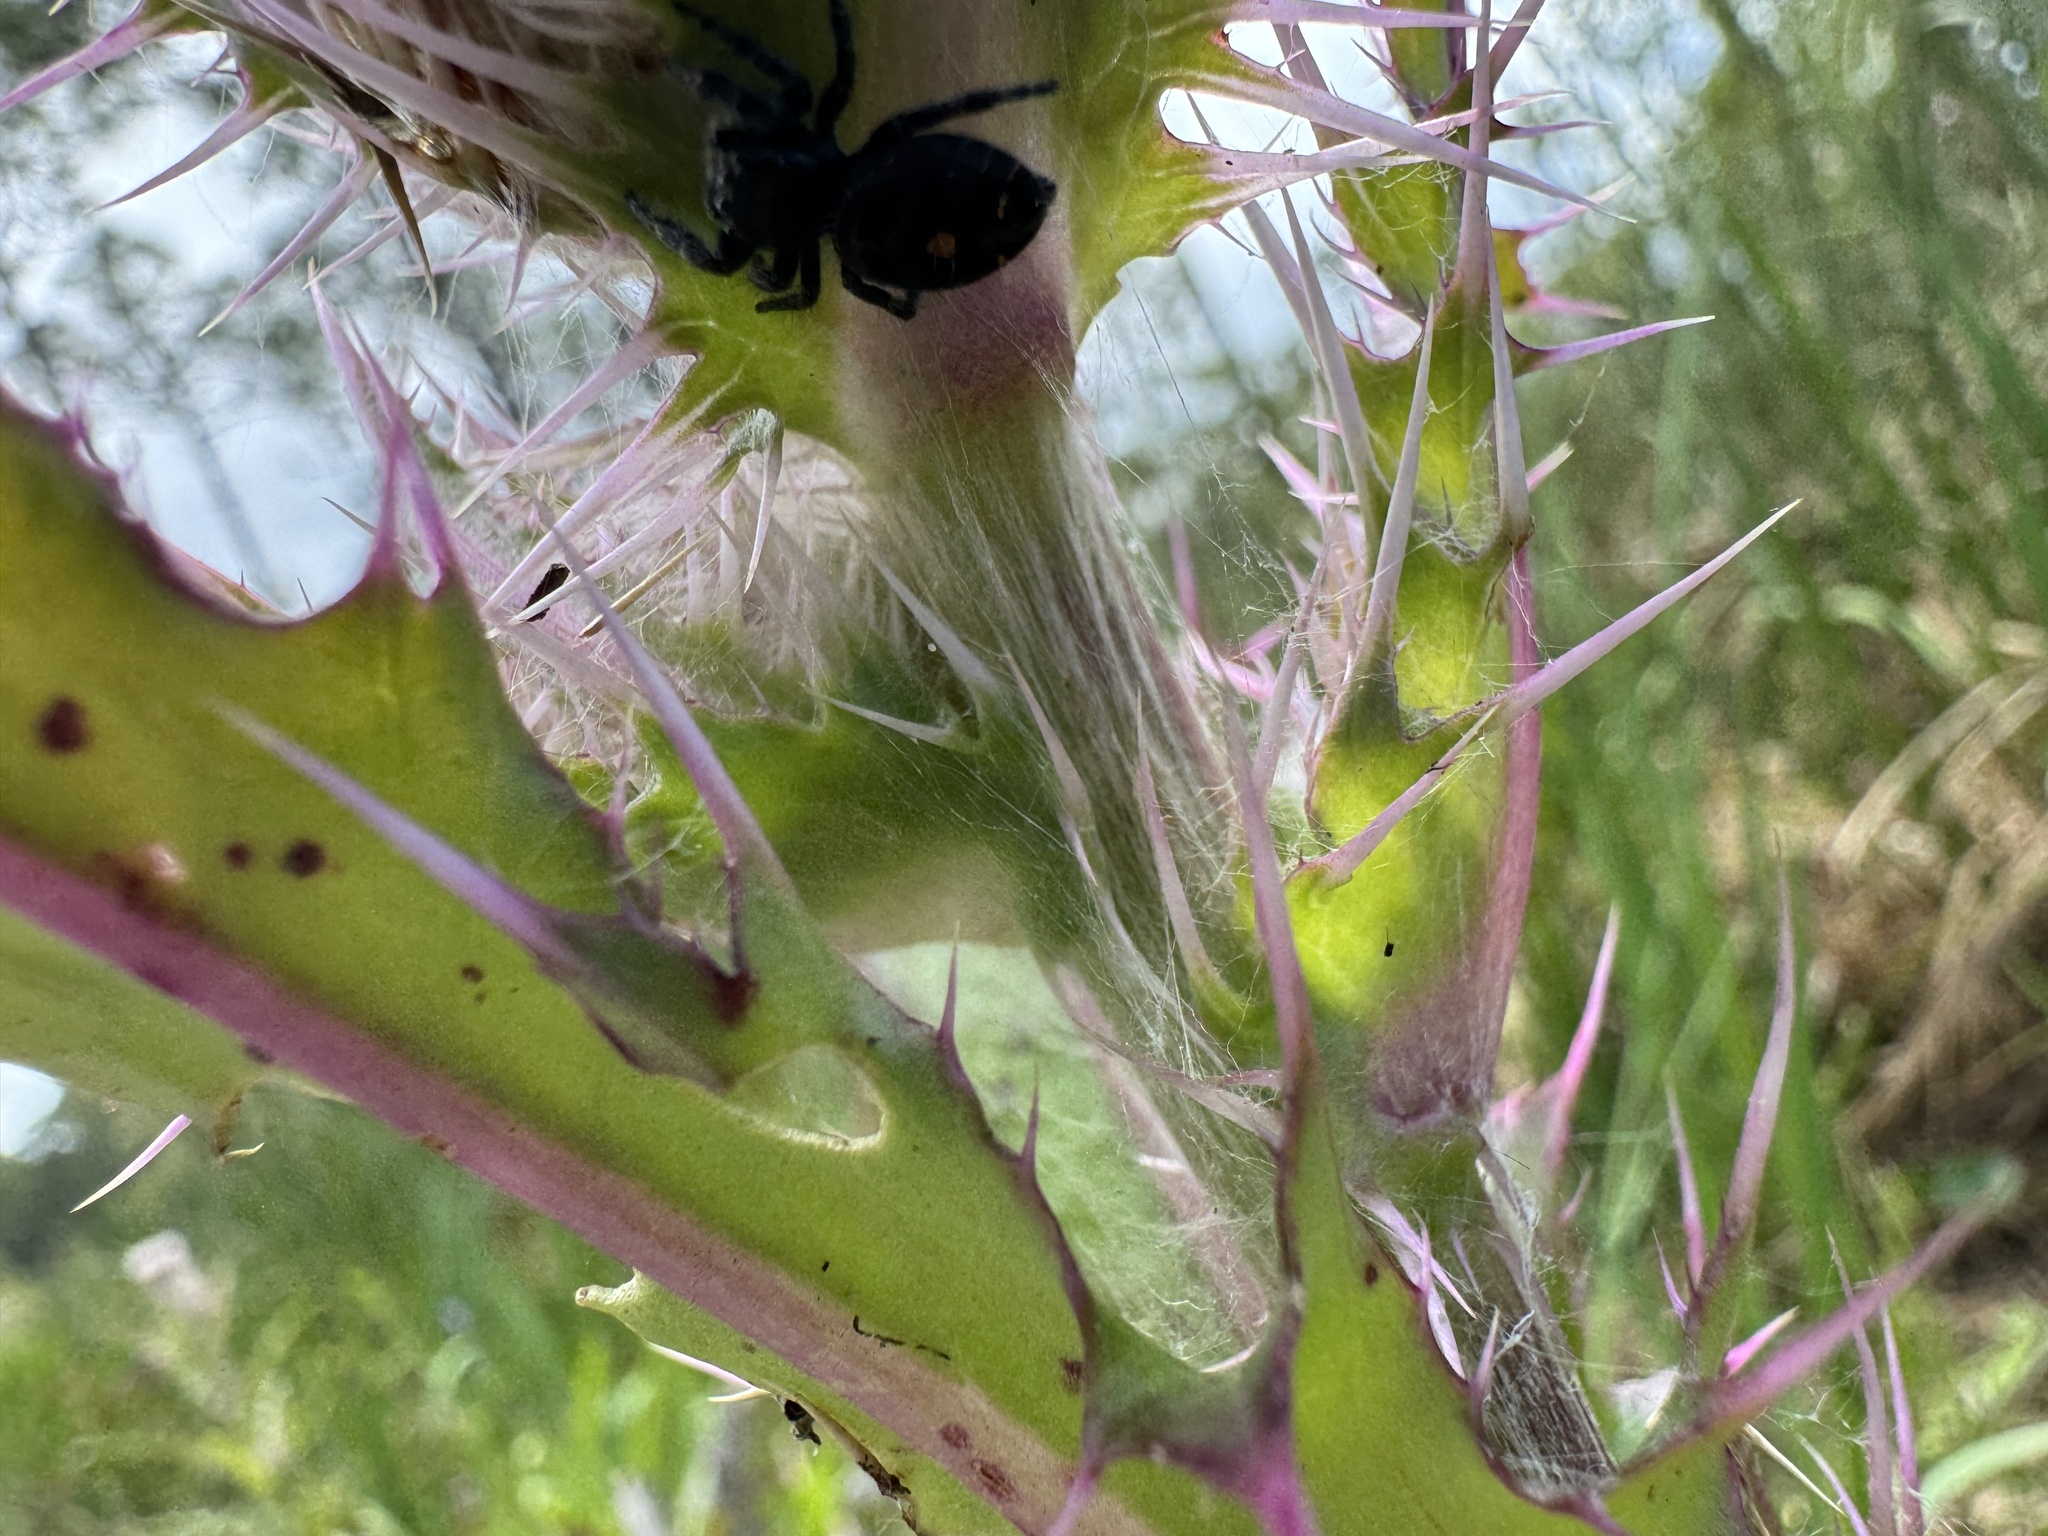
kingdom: Animalia
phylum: Arthropoda
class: Arachnida
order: Araneae
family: Salticidae
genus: Phidippus
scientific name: Phidippus audax
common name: Bold jumper
